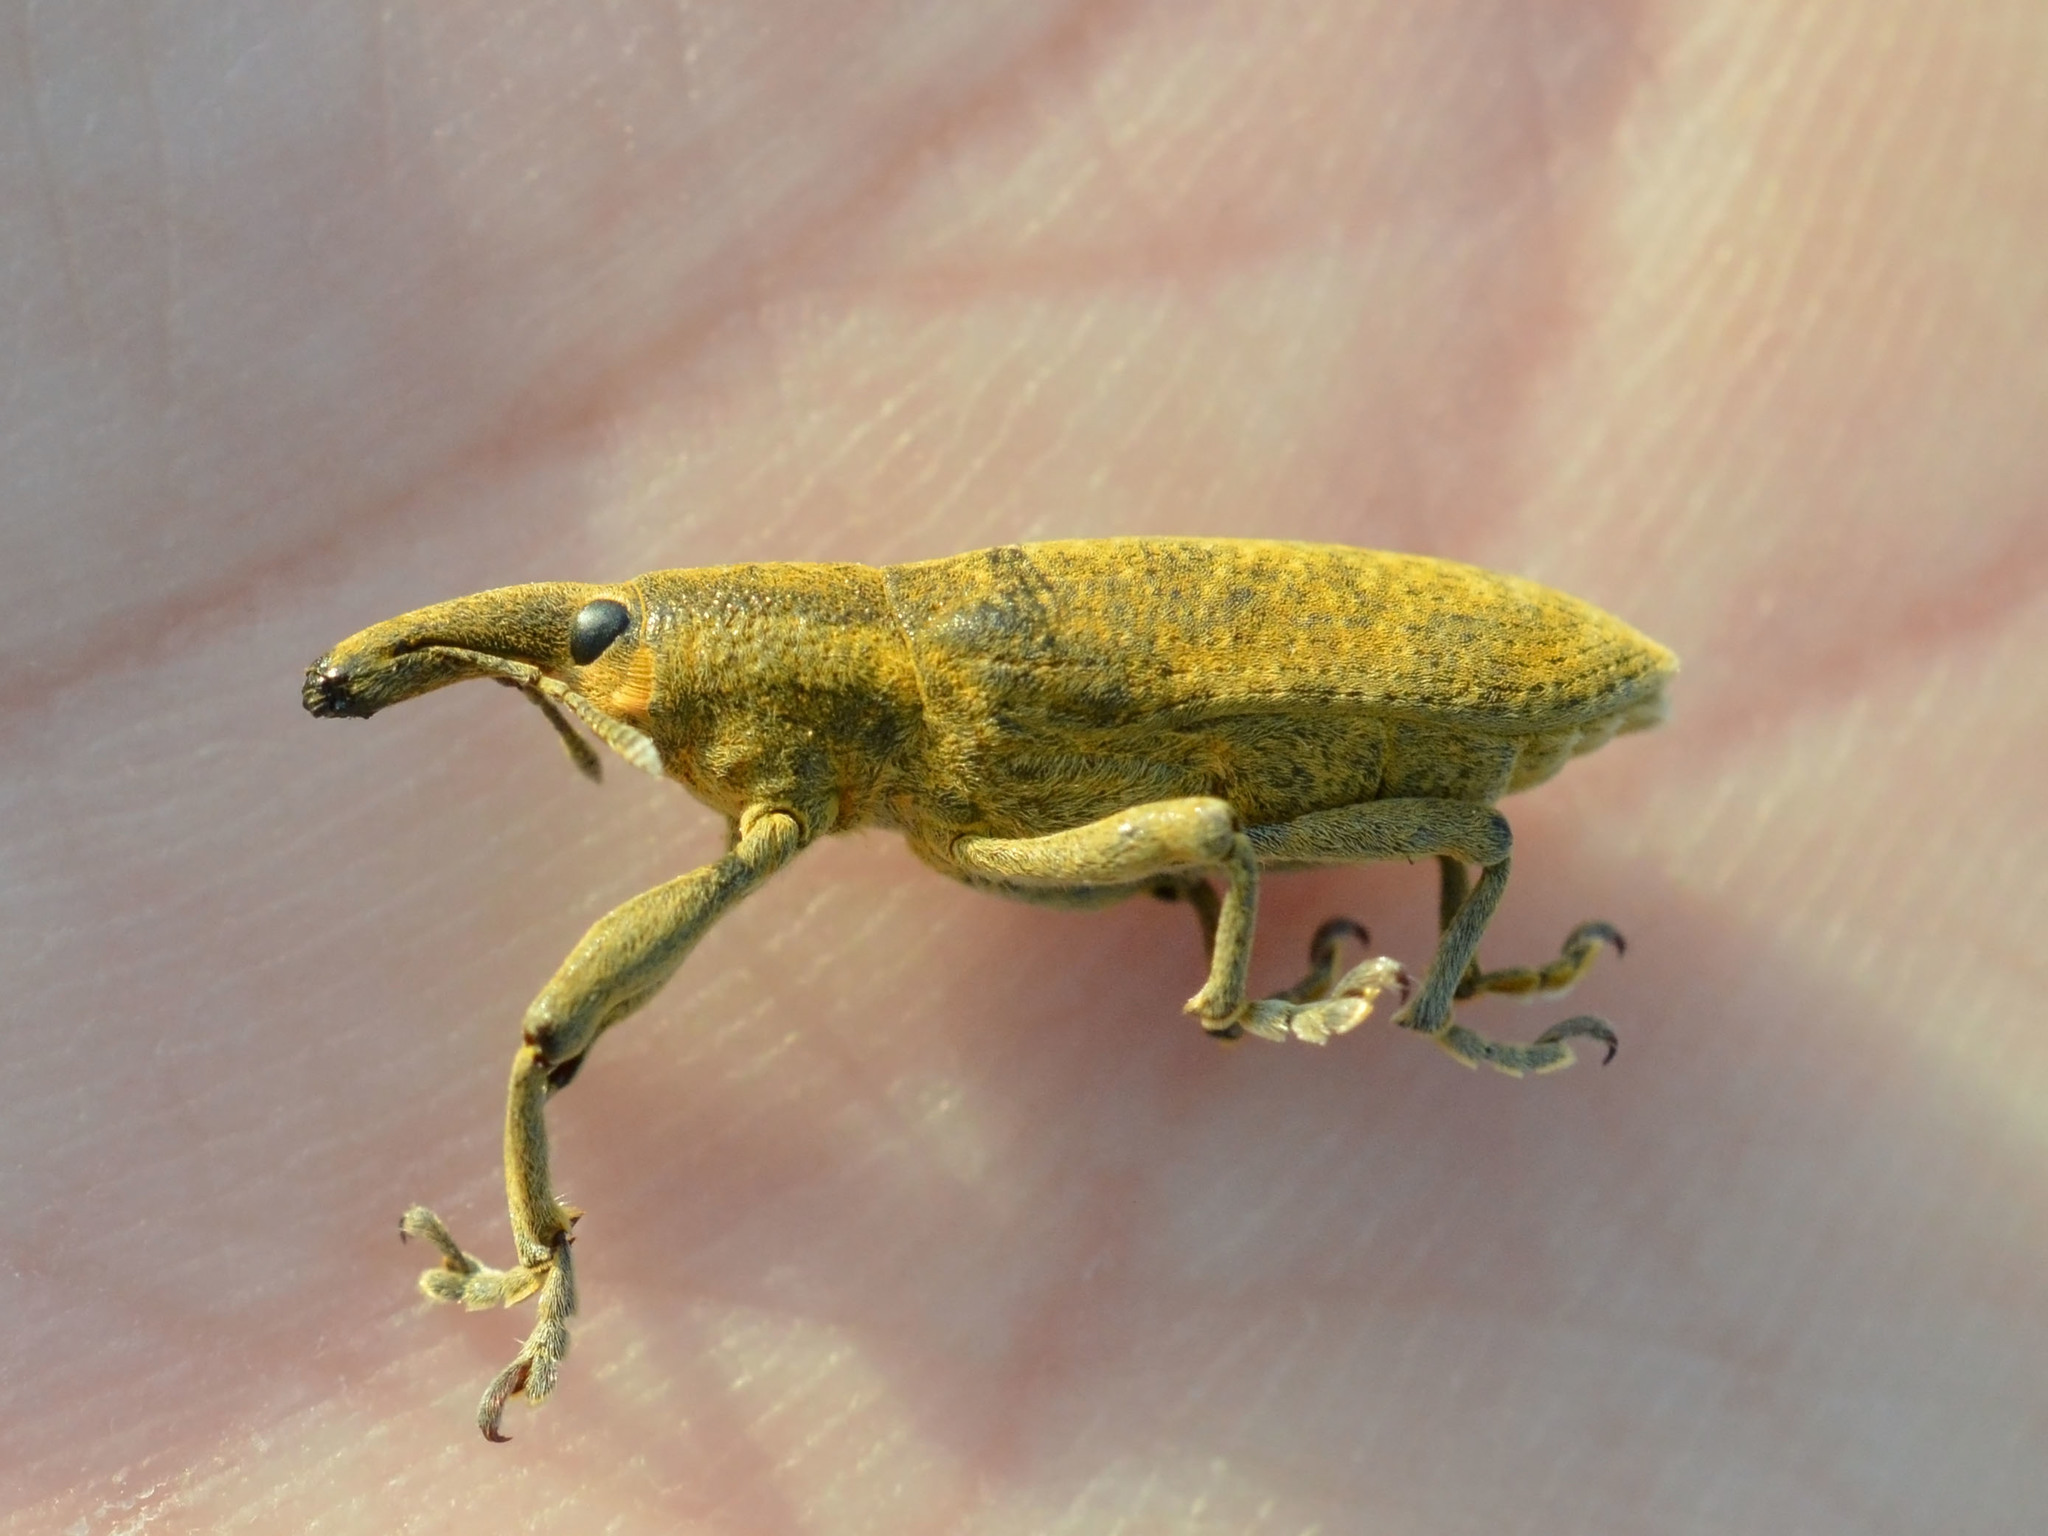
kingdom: Animalia
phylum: Arthropoda
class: Insecta
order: Coleoptera
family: Curculionidae
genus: Lixus
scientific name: Lixus pulverulentus
